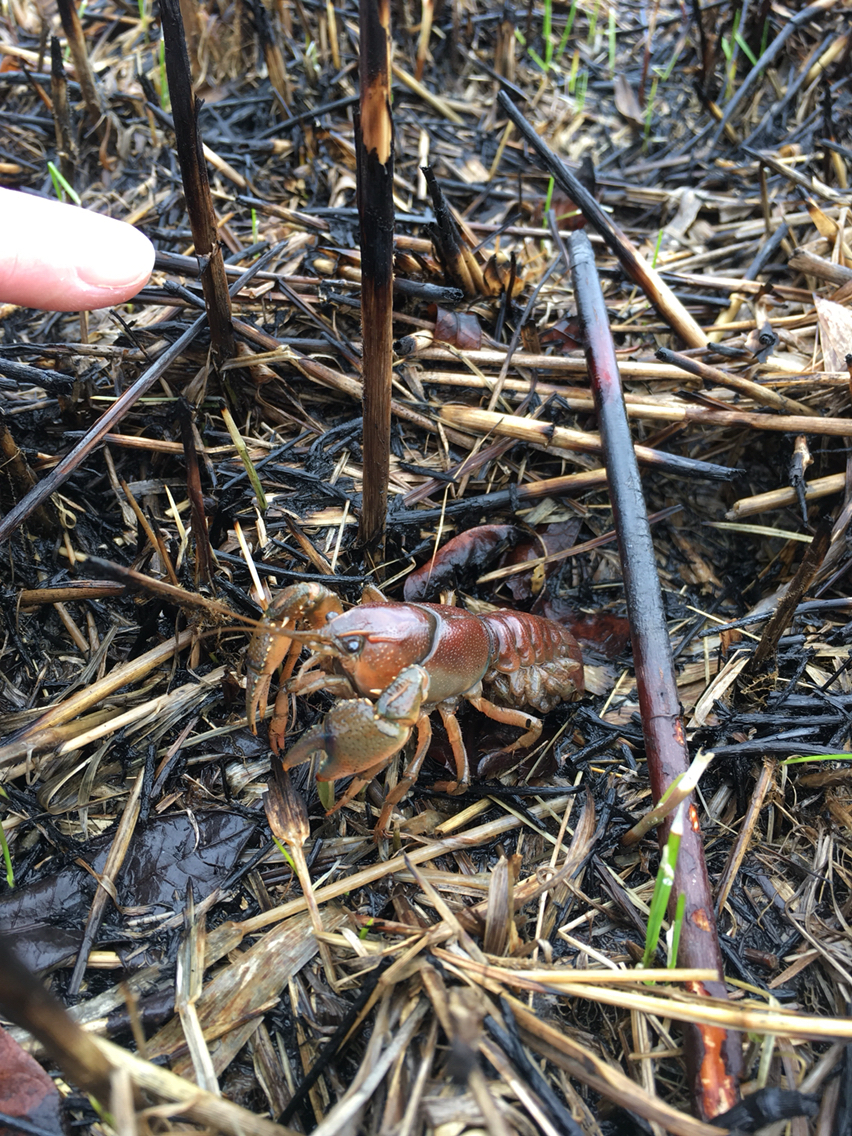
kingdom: Animalia
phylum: Arthropoda
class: Malacostraca
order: Decapoda
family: Cambaridae
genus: Procambarus
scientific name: Procambarus gracilis
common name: Prairie crayfish
